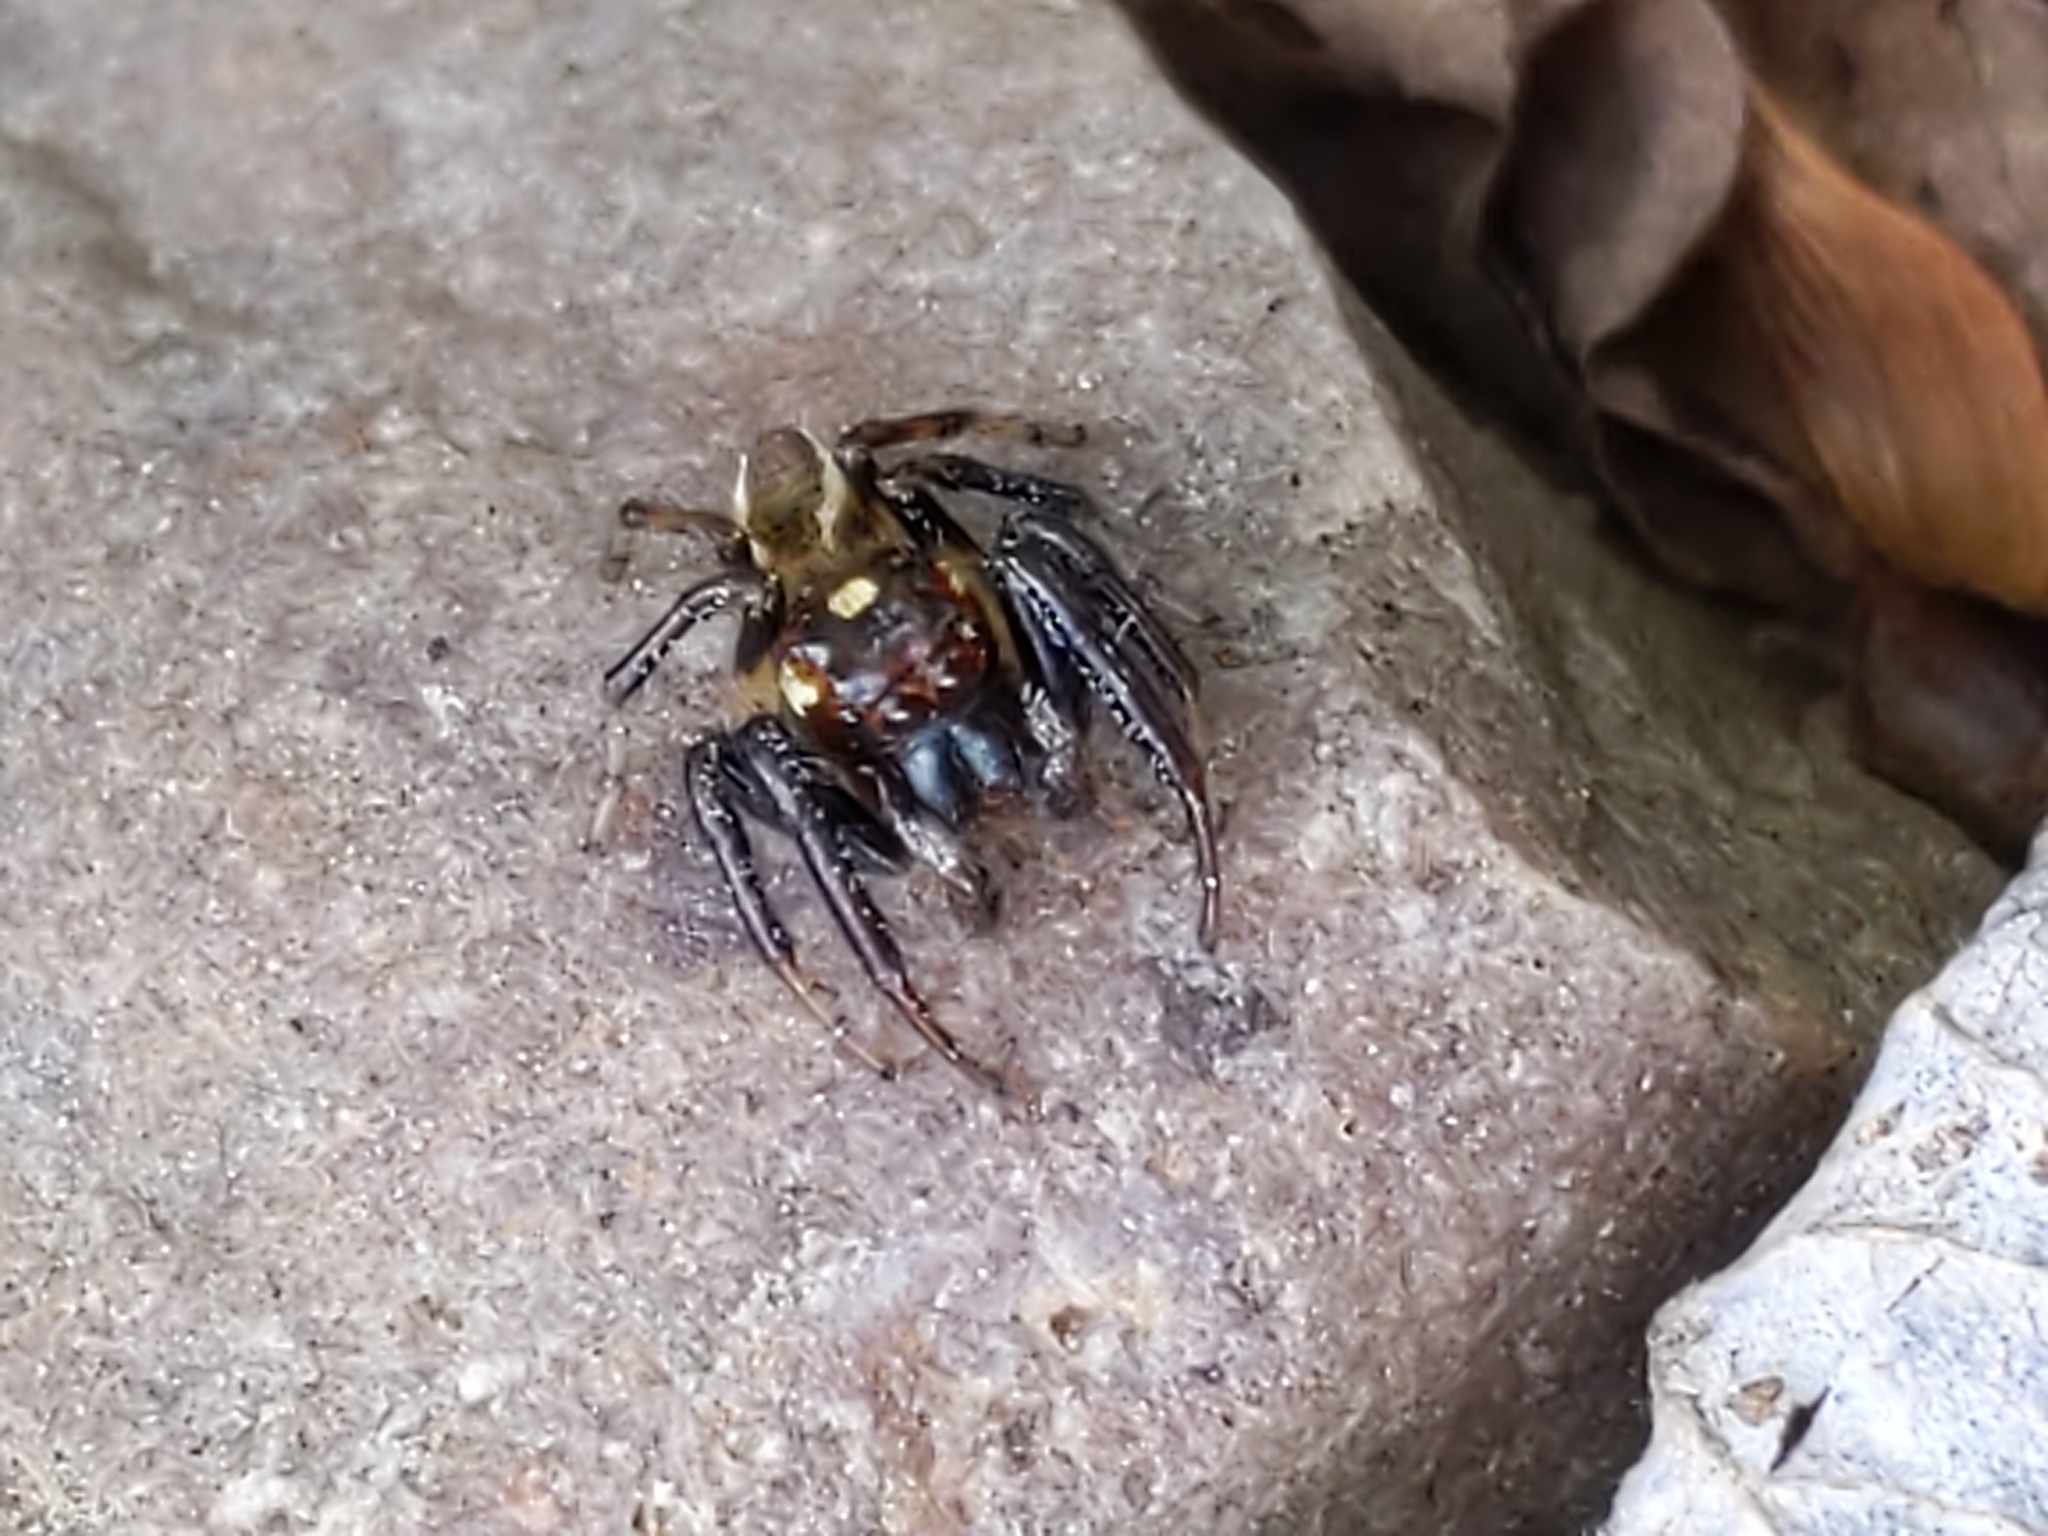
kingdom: Animalia
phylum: Arthropoda
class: Arachnida
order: Araneae
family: Salticidae
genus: Colonus
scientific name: Colonus sylvanus
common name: Jumping spiders
